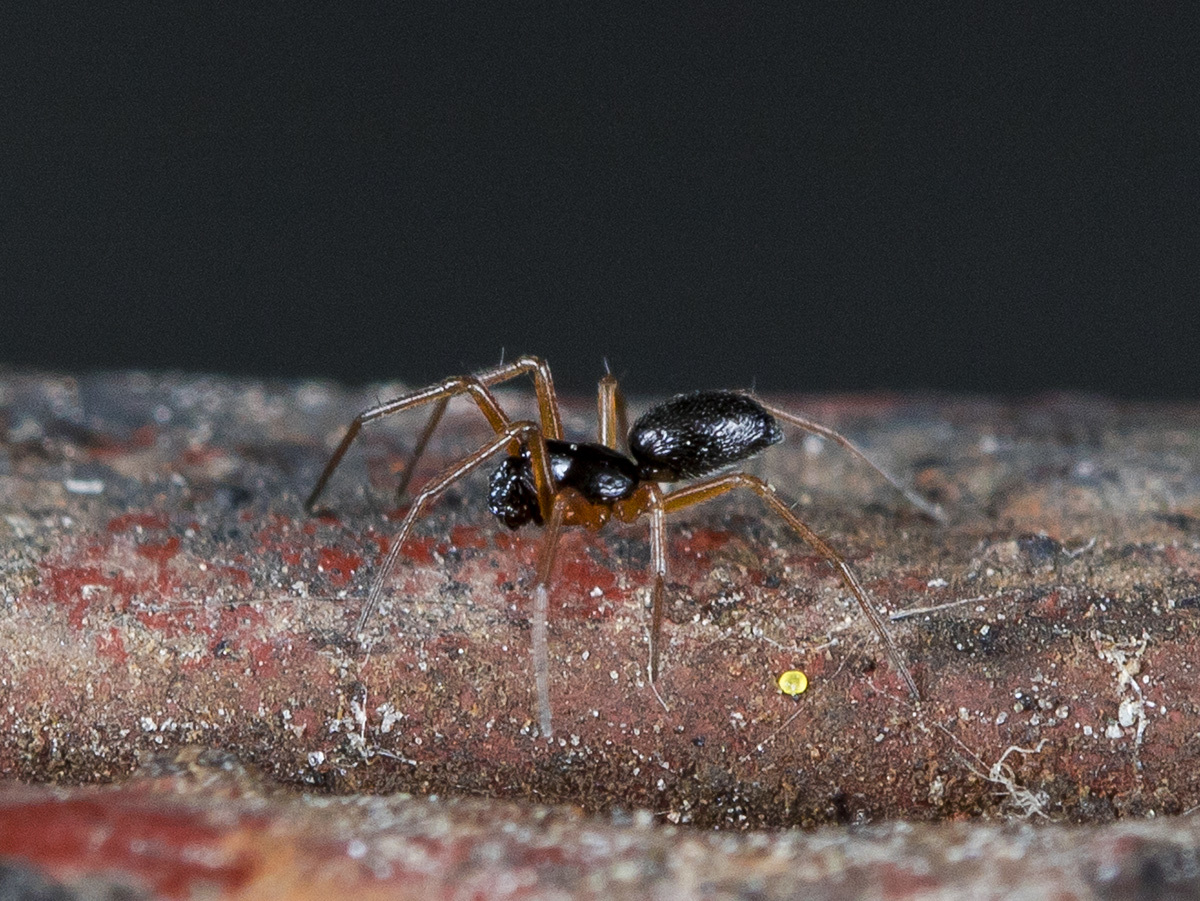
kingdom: Animalia
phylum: Arthropoda
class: Arachnida
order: Araneae
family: Linyphiidae
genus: Entelecara
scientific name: Entelecara erythropus
